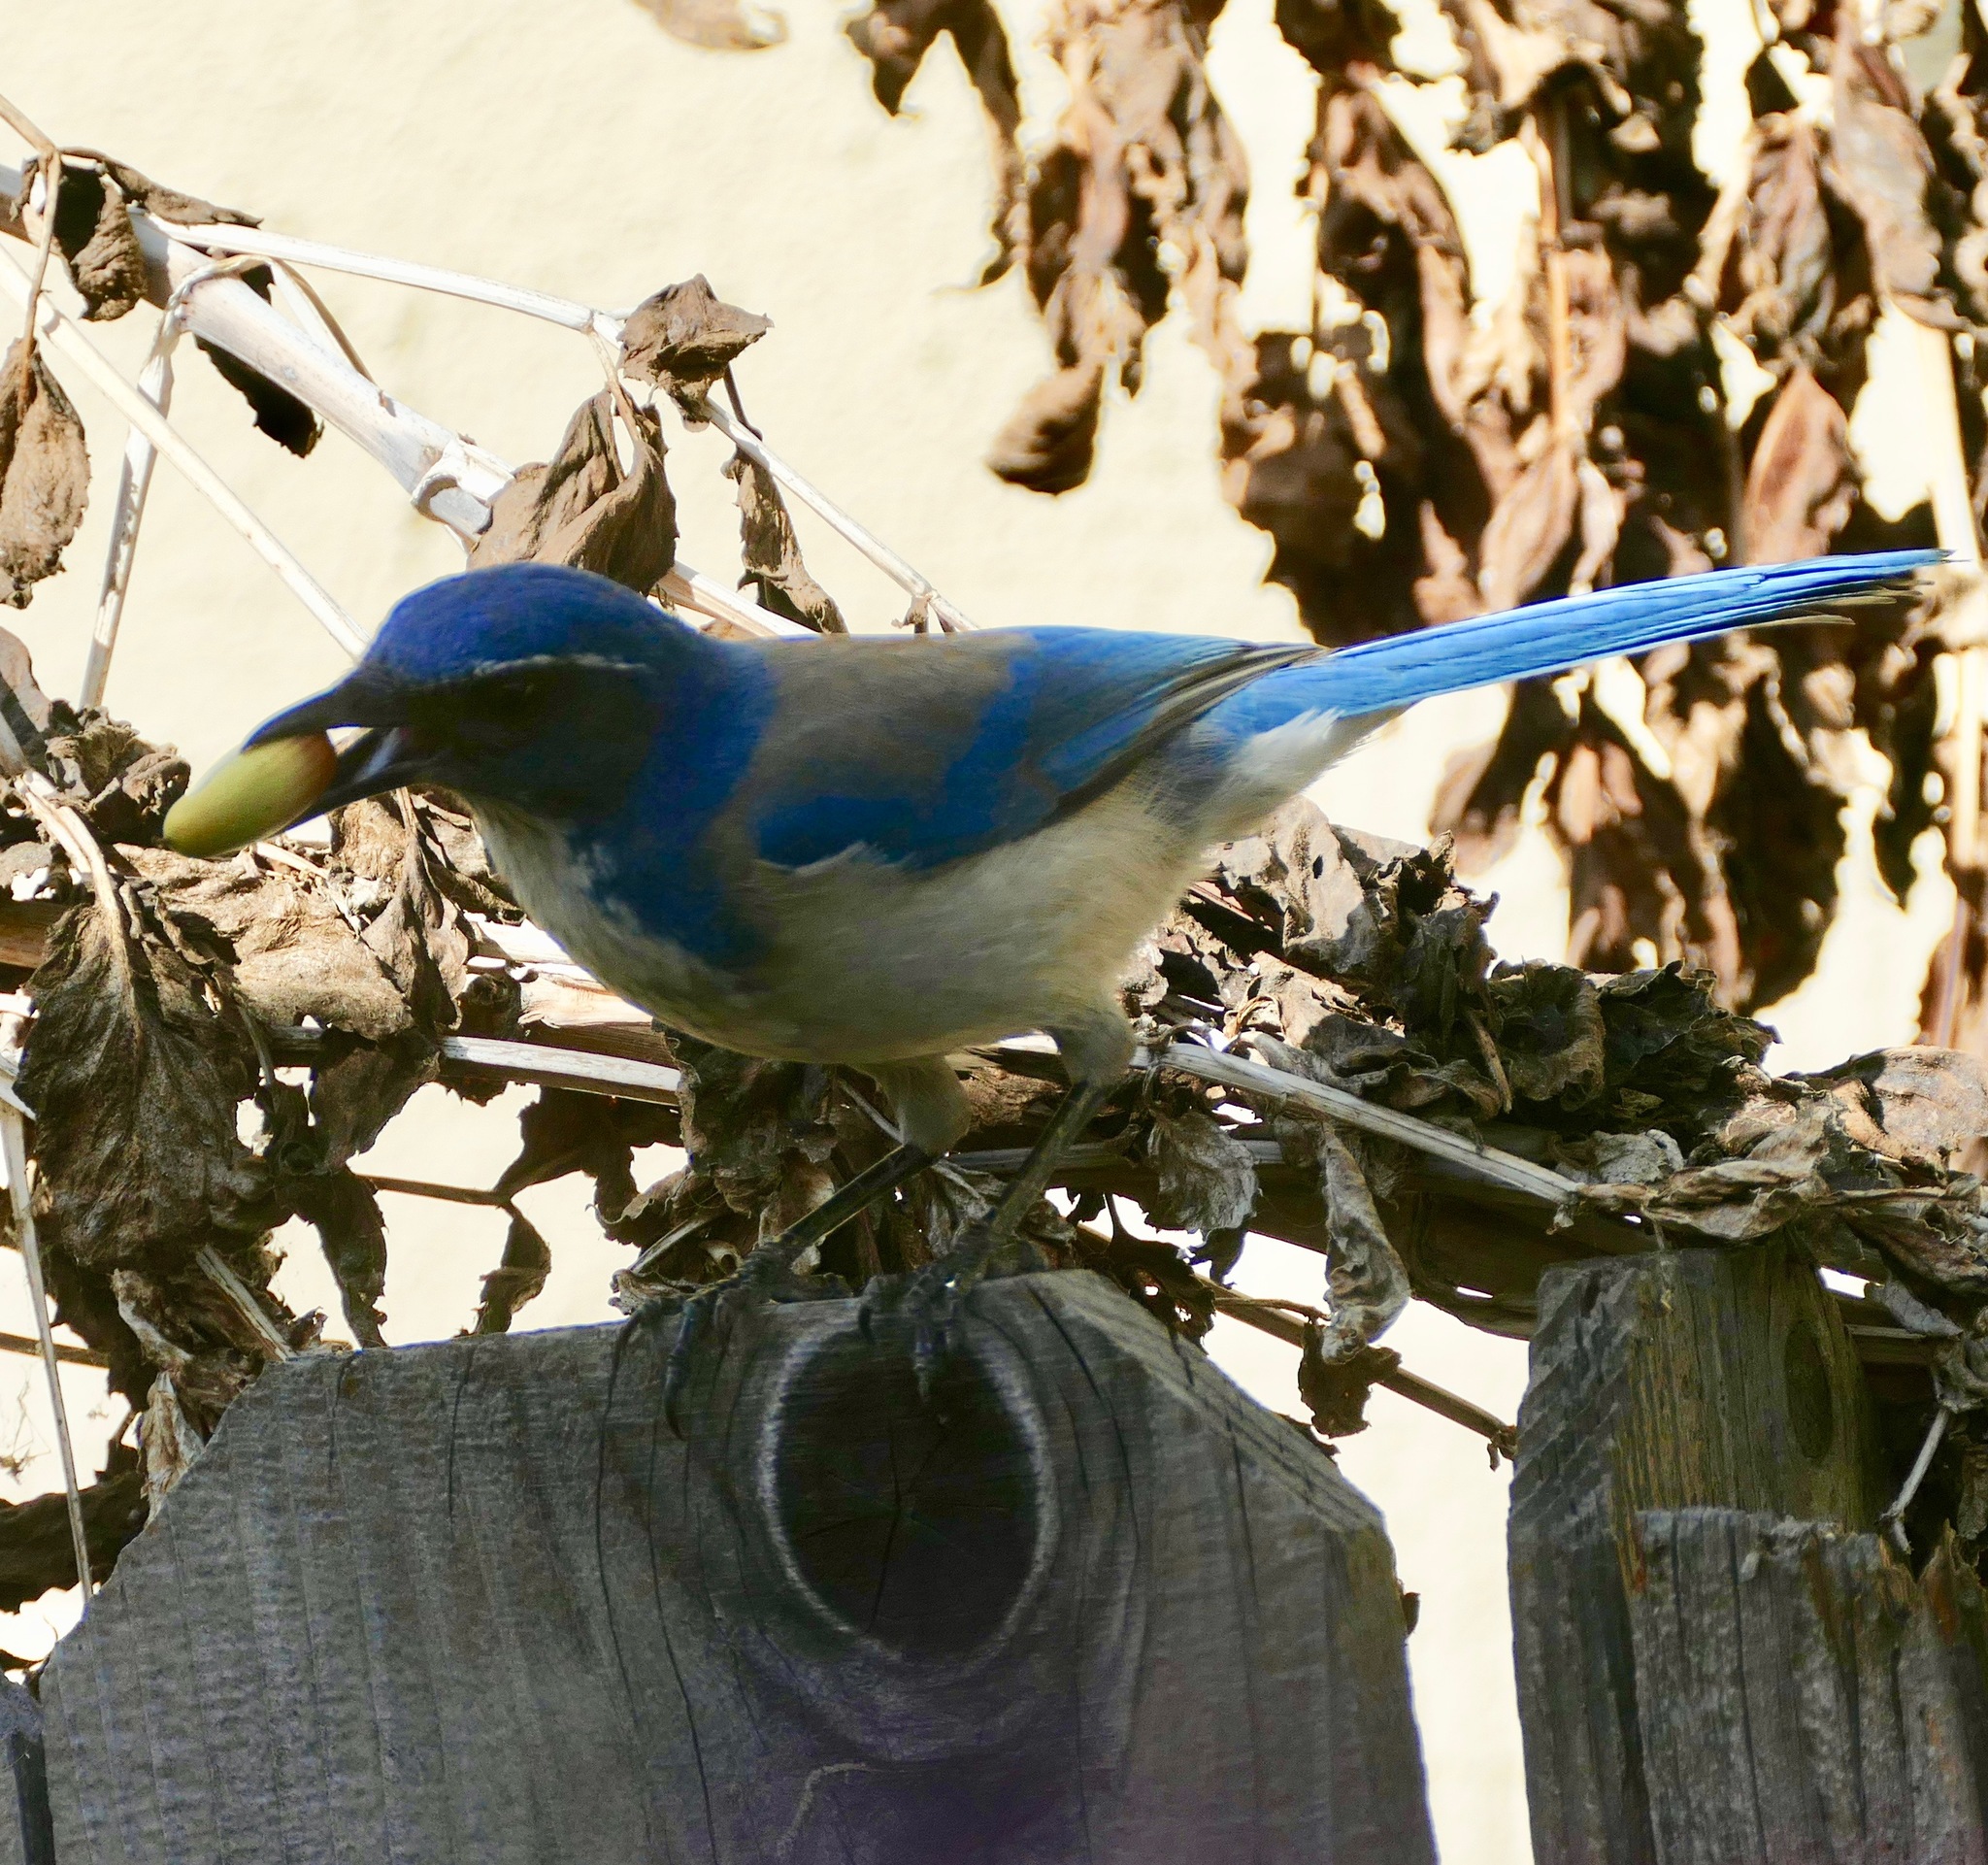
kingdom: Animalia
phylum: Chordata
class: Aves
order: Passeriformes
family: Corvidae
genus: Aphelocoma
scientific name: Aphelocoma californica
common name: California scrub-jay
